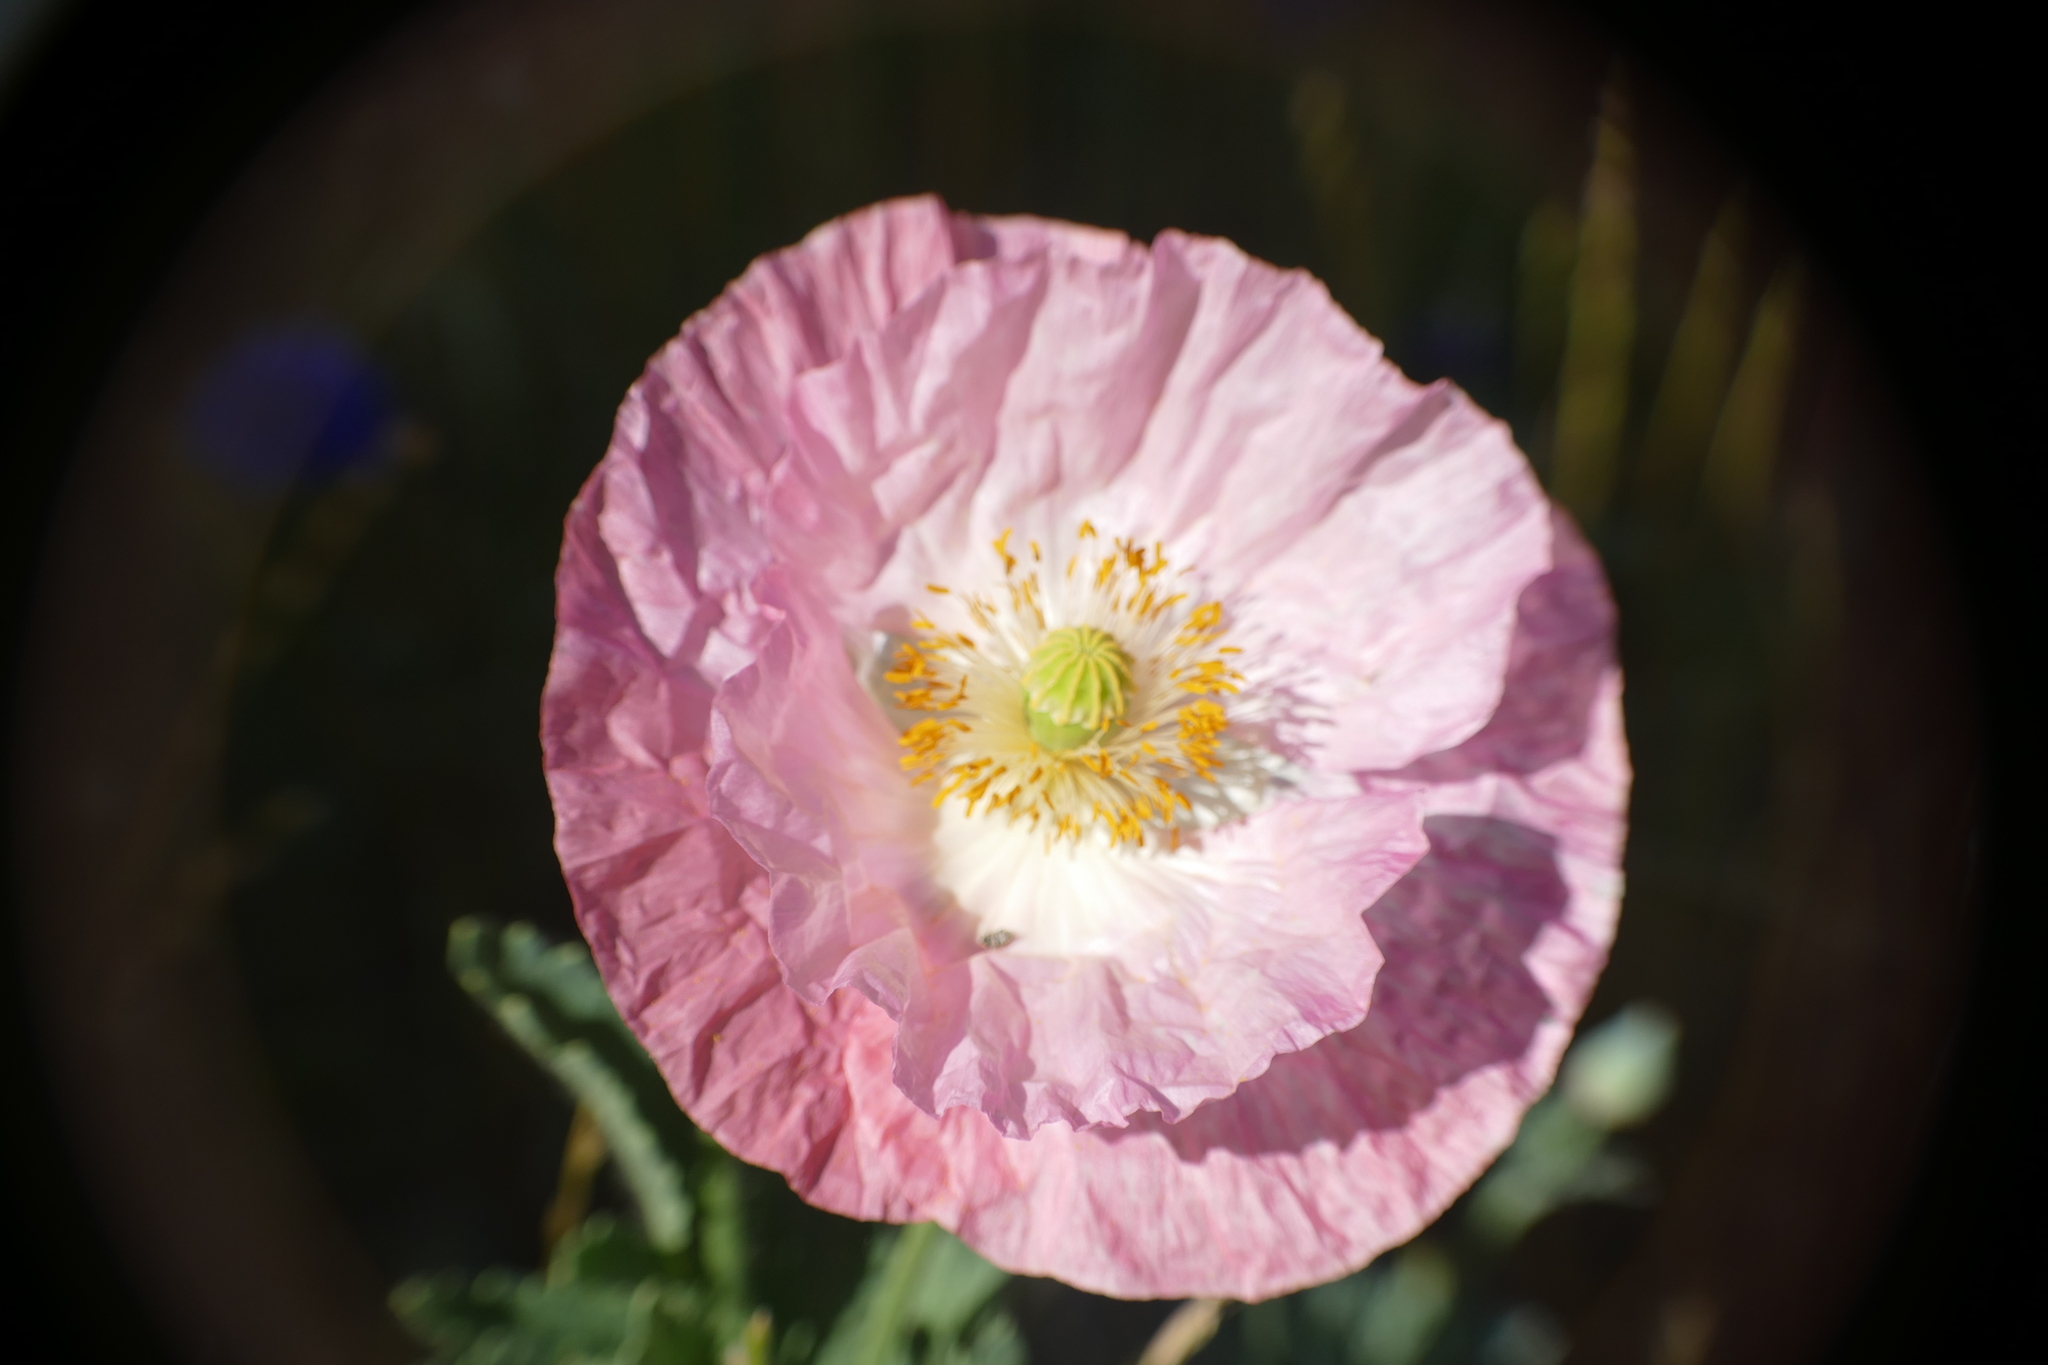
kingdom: Plantae
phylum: Tracheophyta
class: Magnoliopsida
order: Ranunculales
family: Papaveraceae
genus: Papaver
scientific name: Papaver somniferum
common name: Opium poppy
